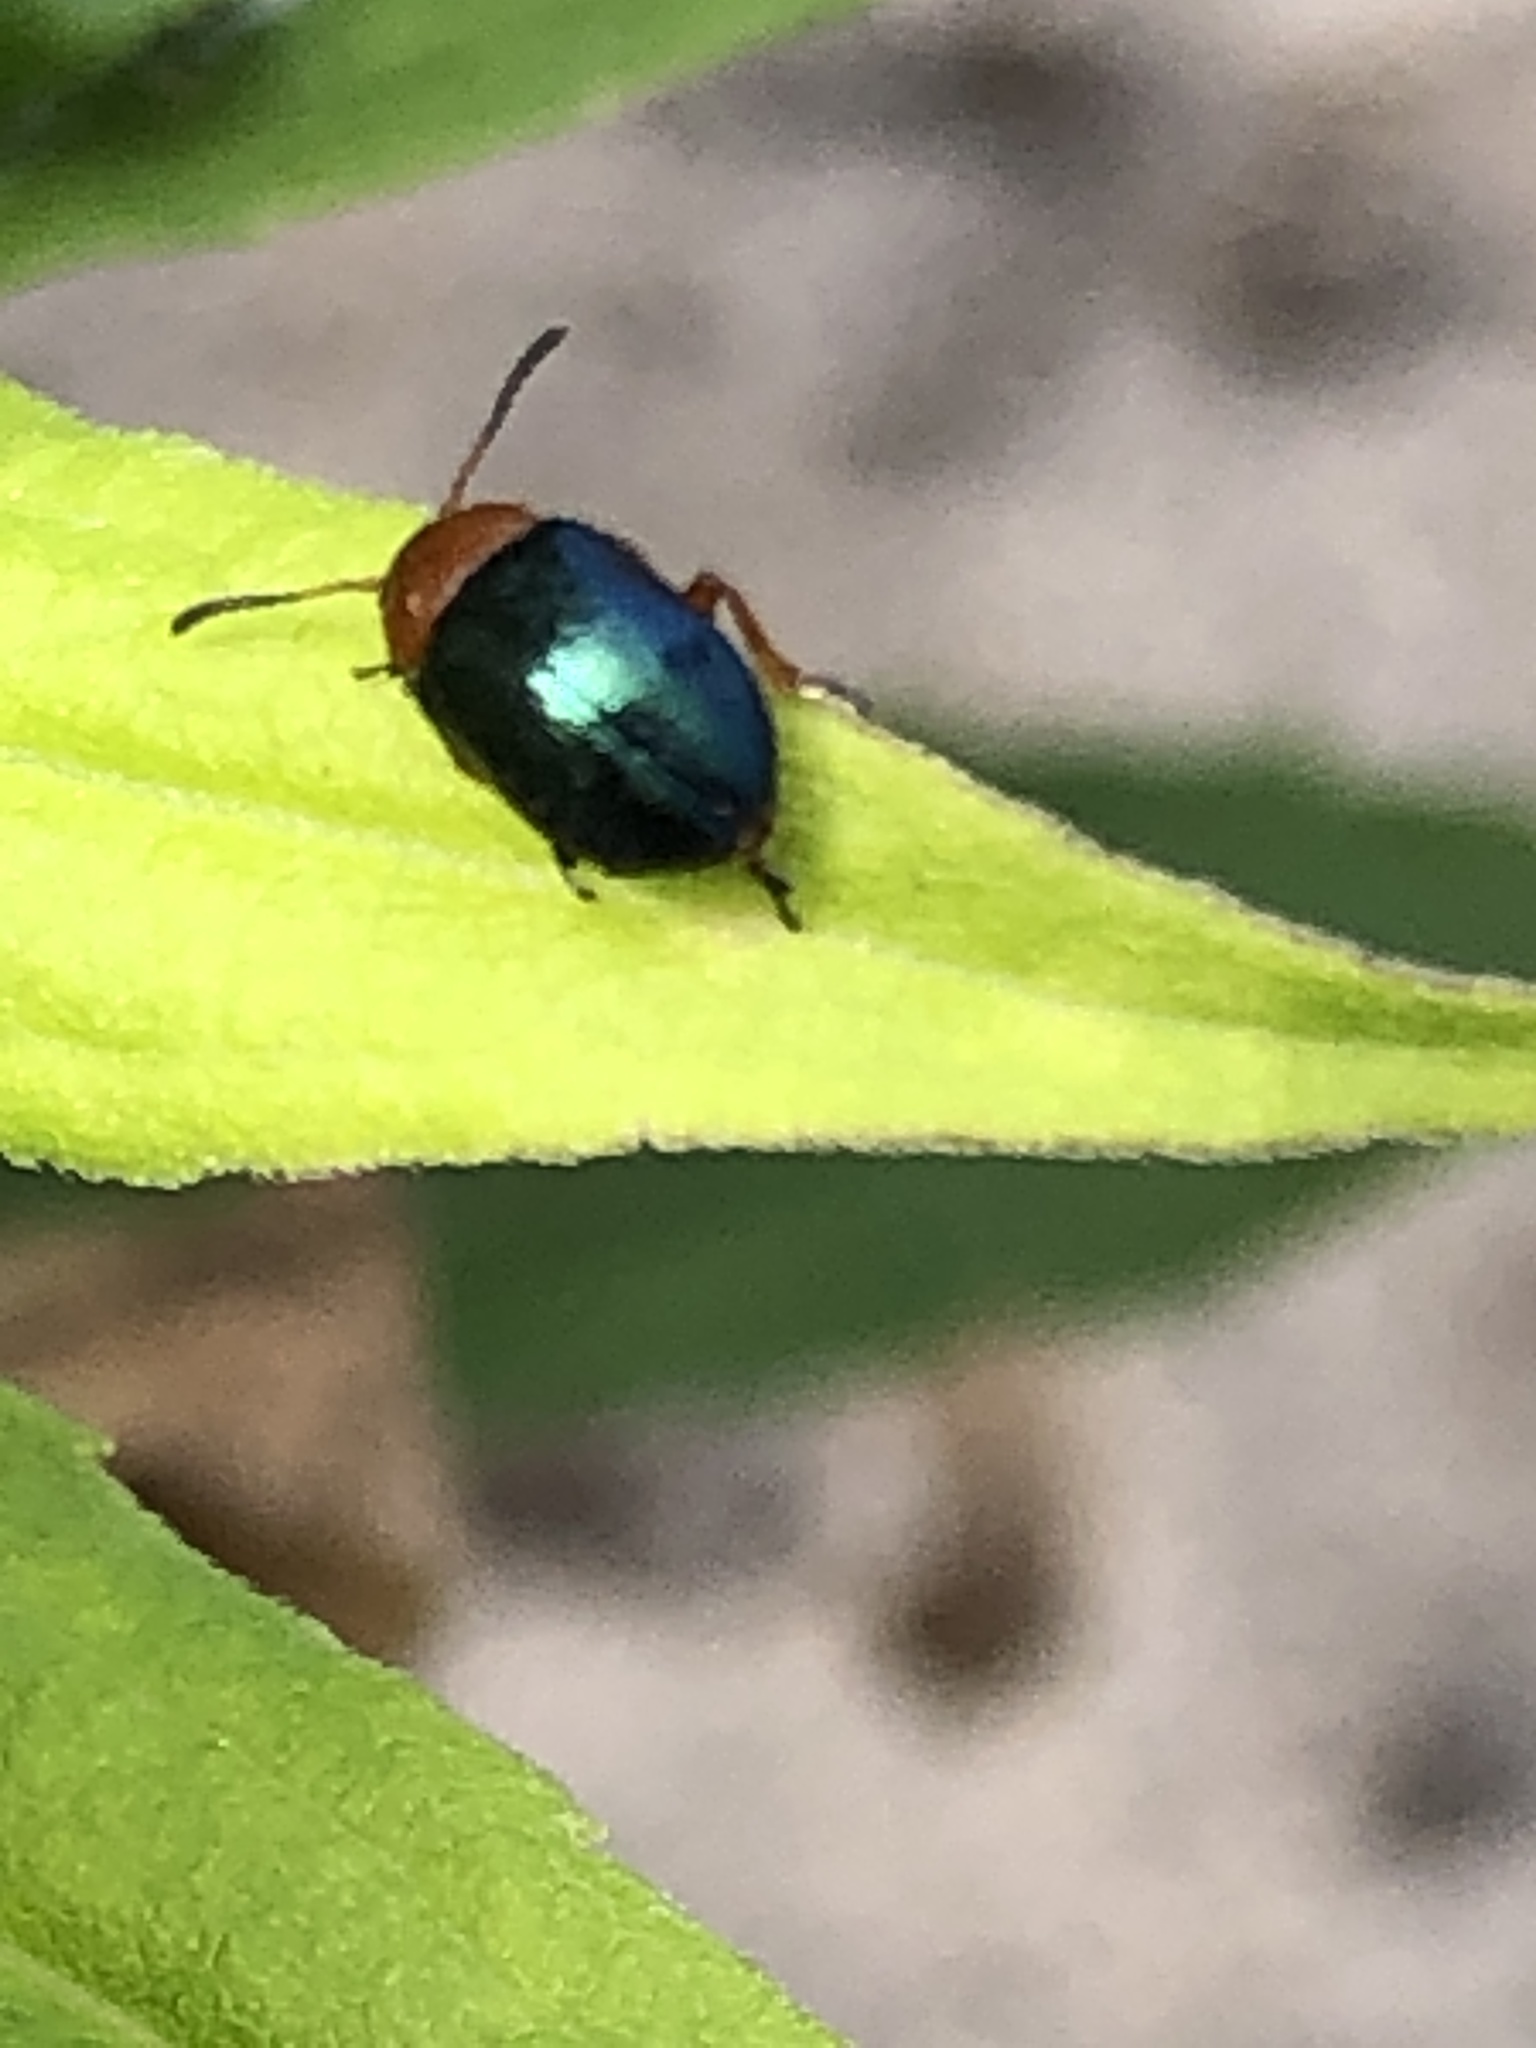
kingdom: Animalia
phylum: Arthropoda
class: Insecta
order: Coleoptera
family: Chrysomelidae
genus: Gastrophysa
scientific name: Gastrophysa polygoni
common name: Knotweed leaf beetle
